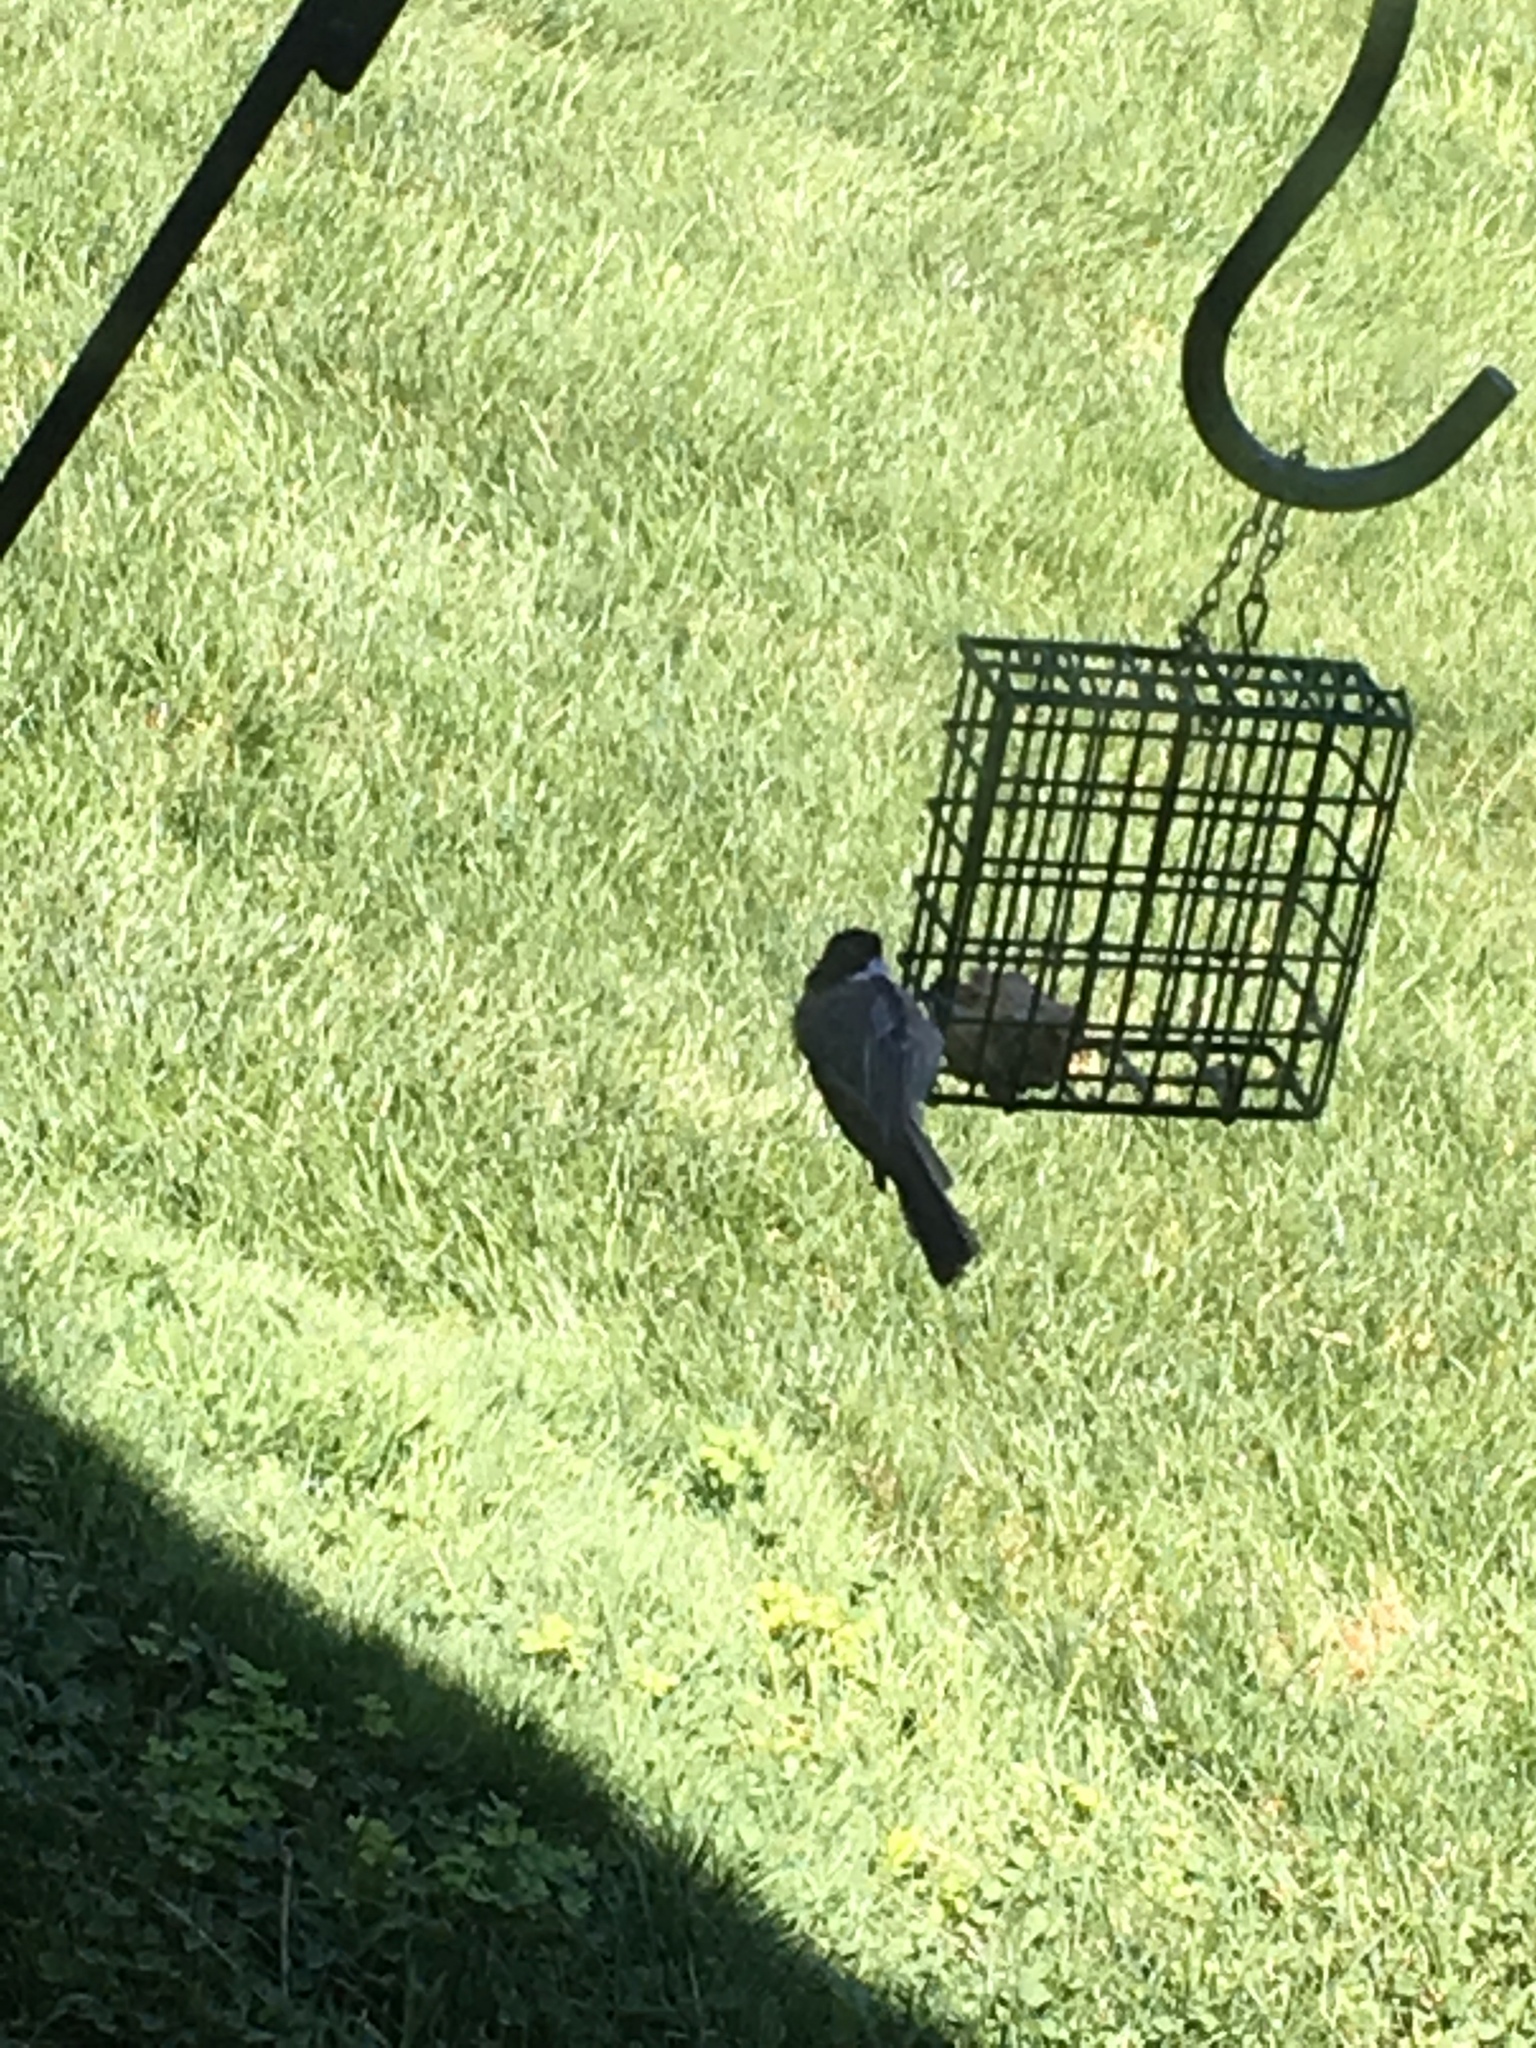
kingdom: Animalia
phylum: Chordata
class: Aves
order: Passeriformes
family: Paridae
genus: Poecile
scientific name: Poecile atricapillus
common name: Black-capped chickadee
